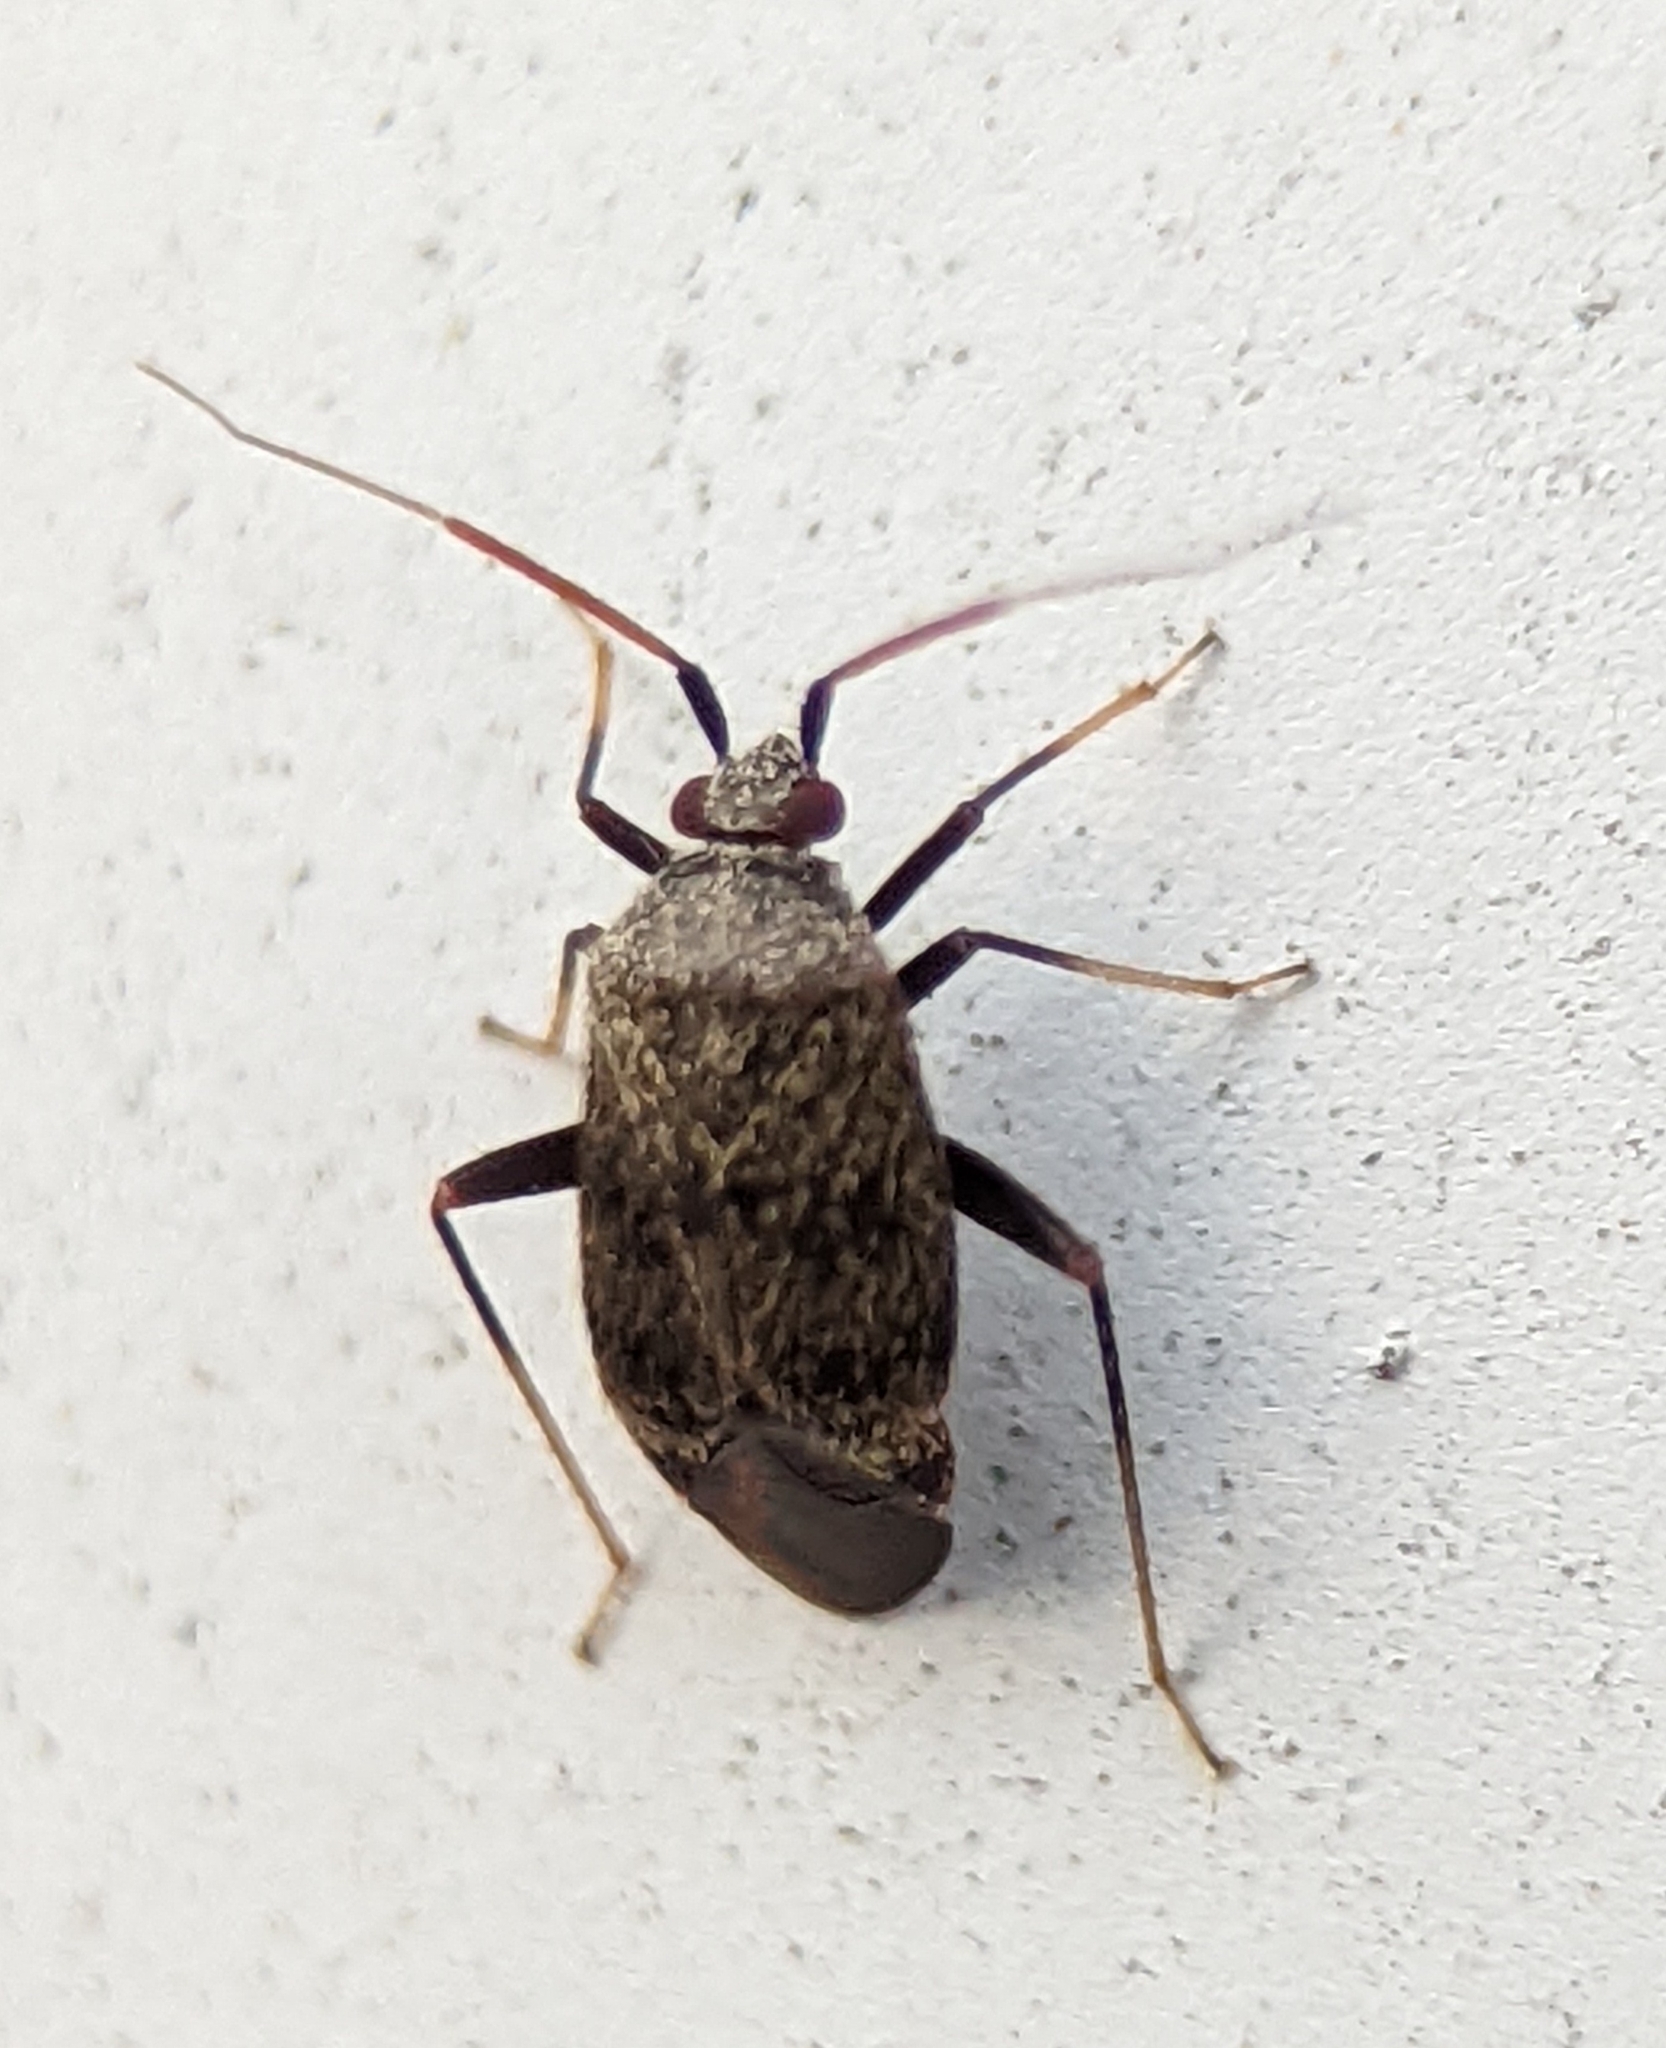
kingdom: Animalia
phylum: Arthropoda
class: Insecta
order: Hemiptera
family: Miridae
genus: Texocoris
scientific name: Texocoris nigrellus
